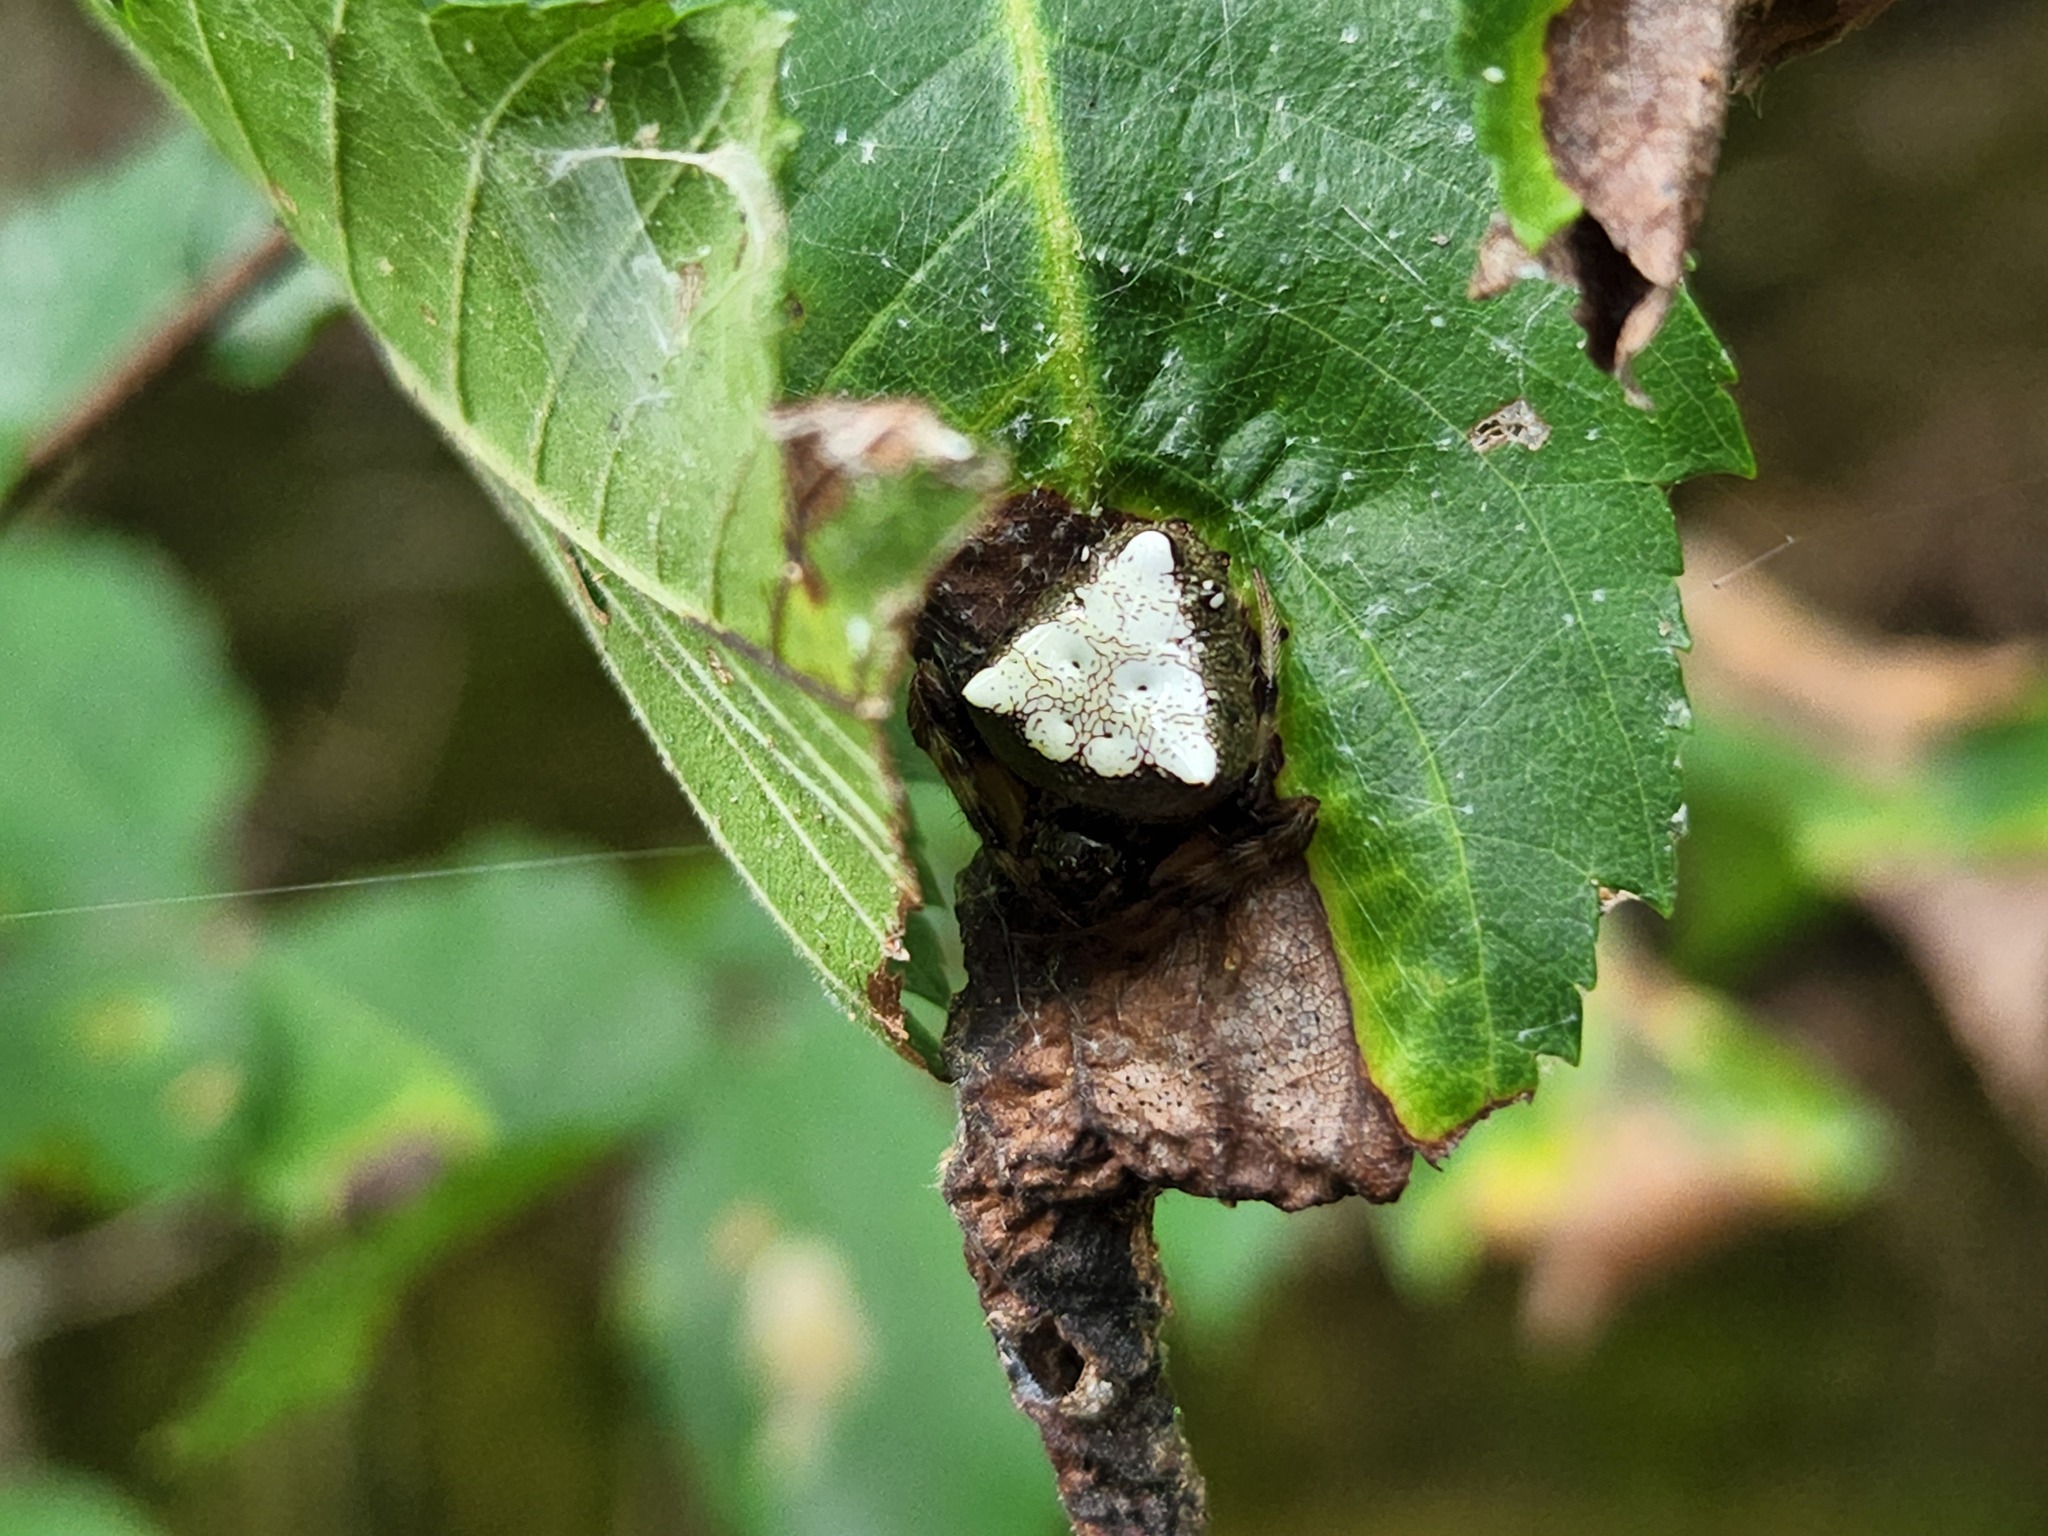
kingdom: Animalia
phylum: Arthropoda
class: Arachnida
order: Araneae
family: Araneidae
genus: Verrucosa
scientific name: Verrucosa arenata
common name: Orb weavers
